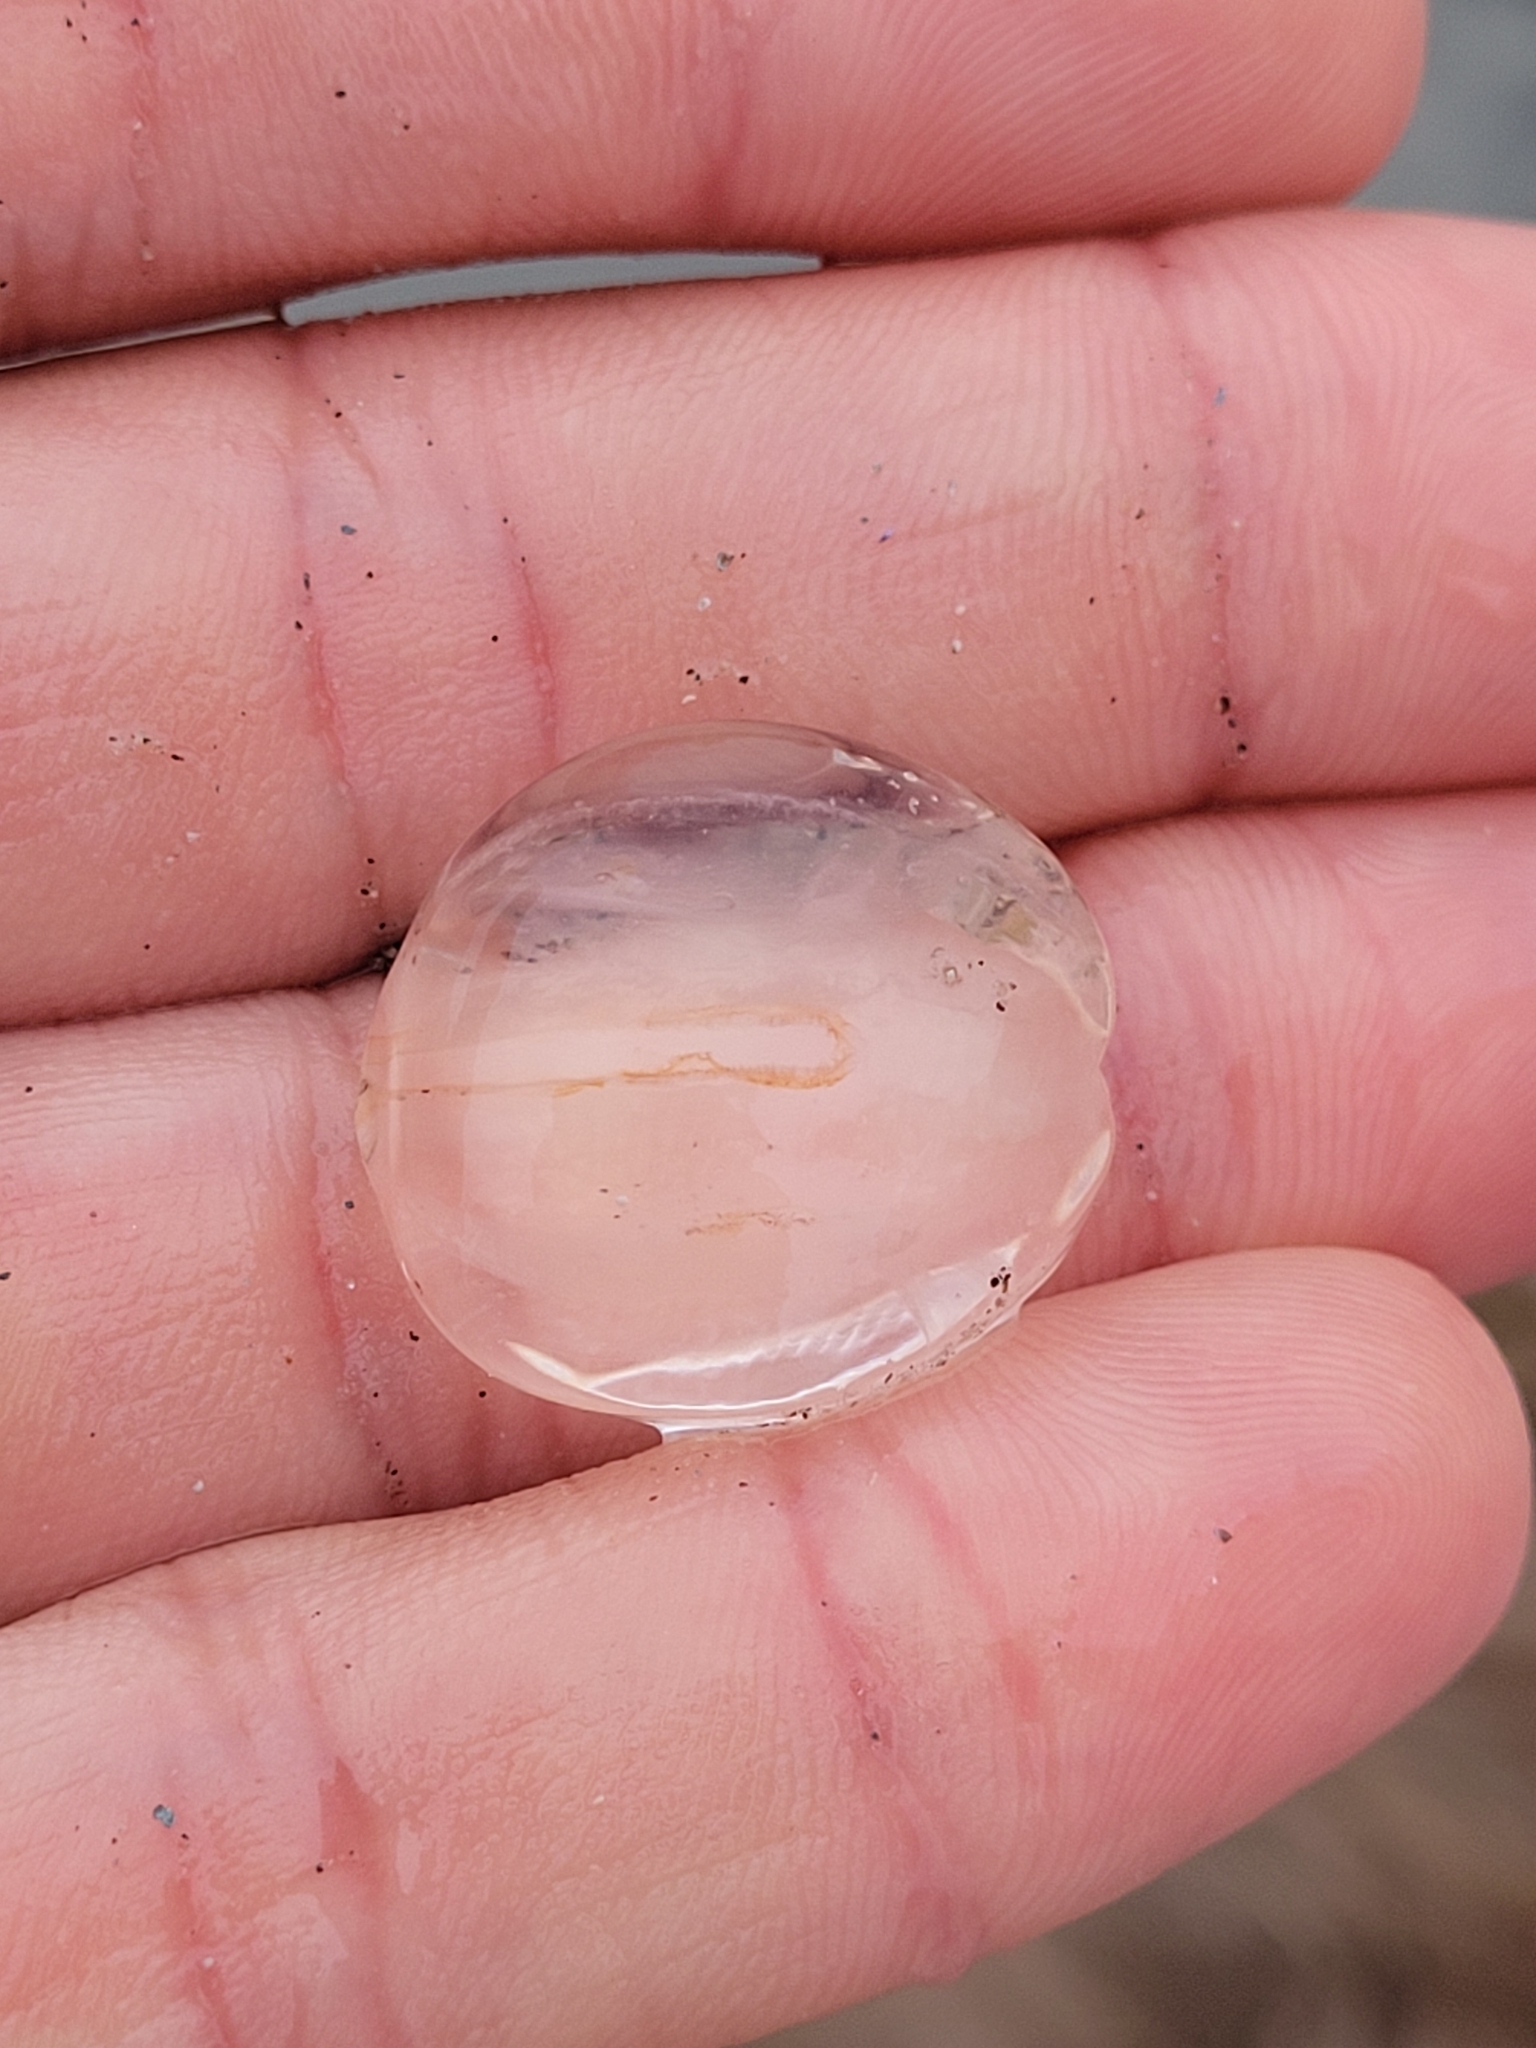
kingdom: Animalia
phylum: Ctenophora
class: Tentaculata
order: Cydippida
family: Pleurobrachiidae
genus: Pleurobrachia
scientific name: Pleurobrachia pileus
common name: Sea gooseberry
